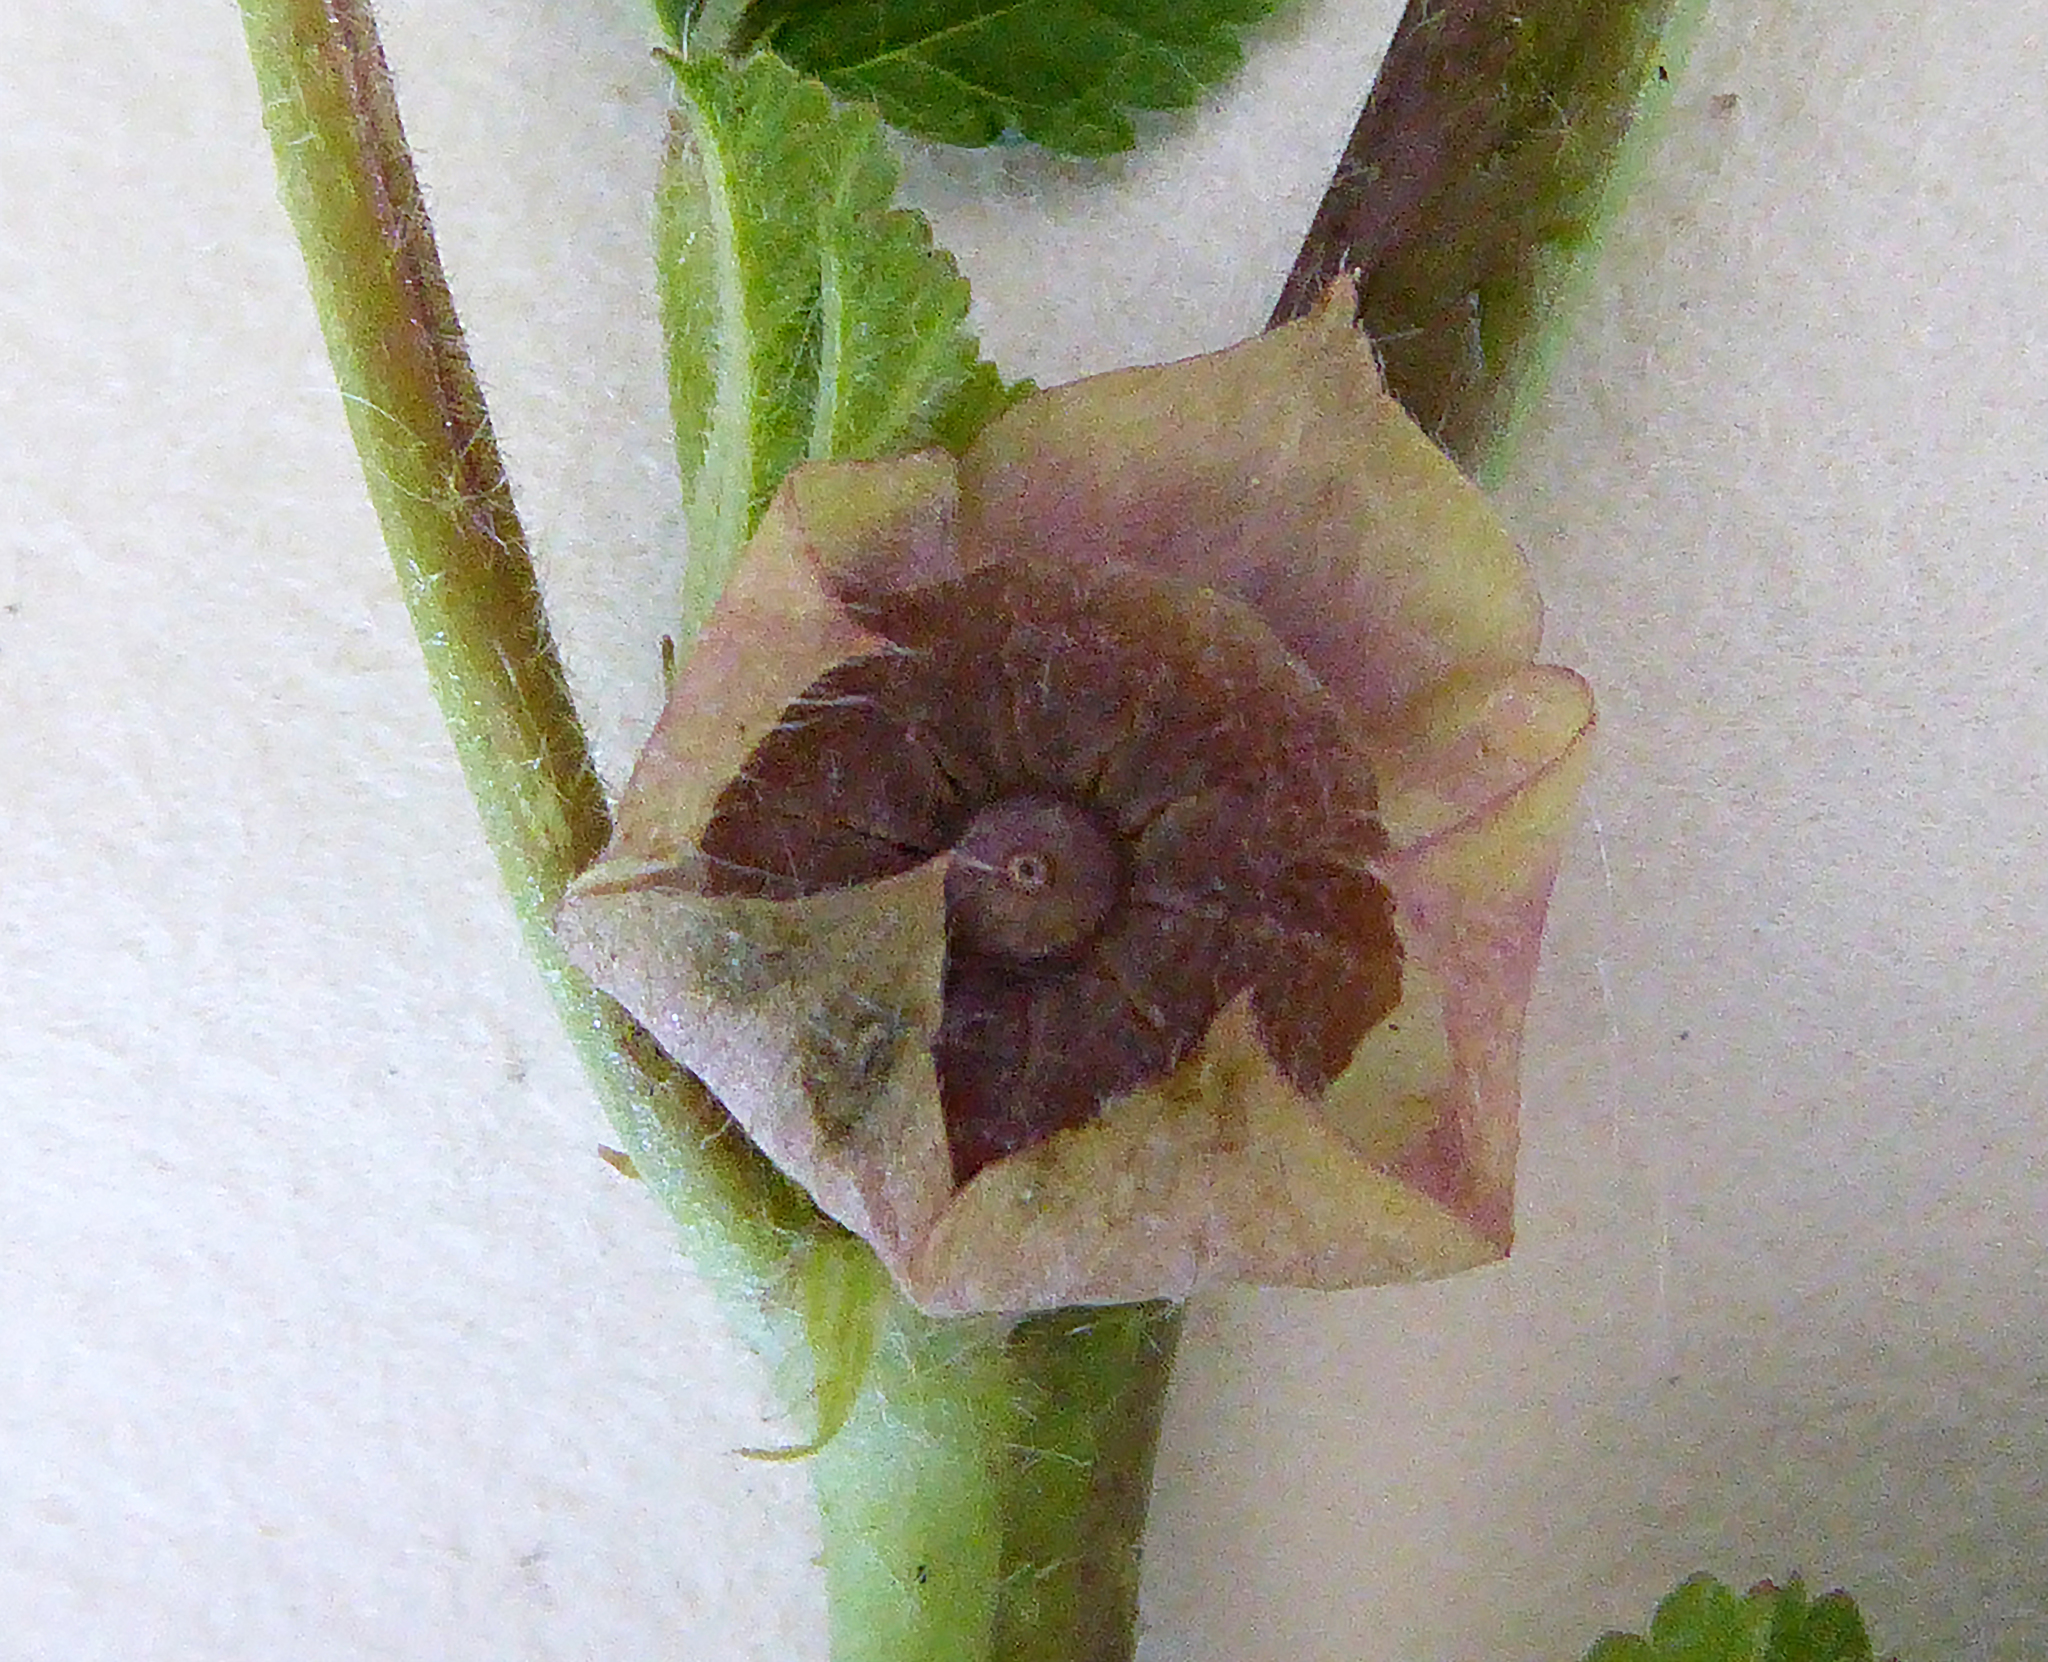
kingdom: Plantae
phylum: Tracheophyta
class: Magnoliopsida
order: Malvales
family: Malvaceae
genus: Malva
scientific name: Malva neglecta
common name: Common mallow
